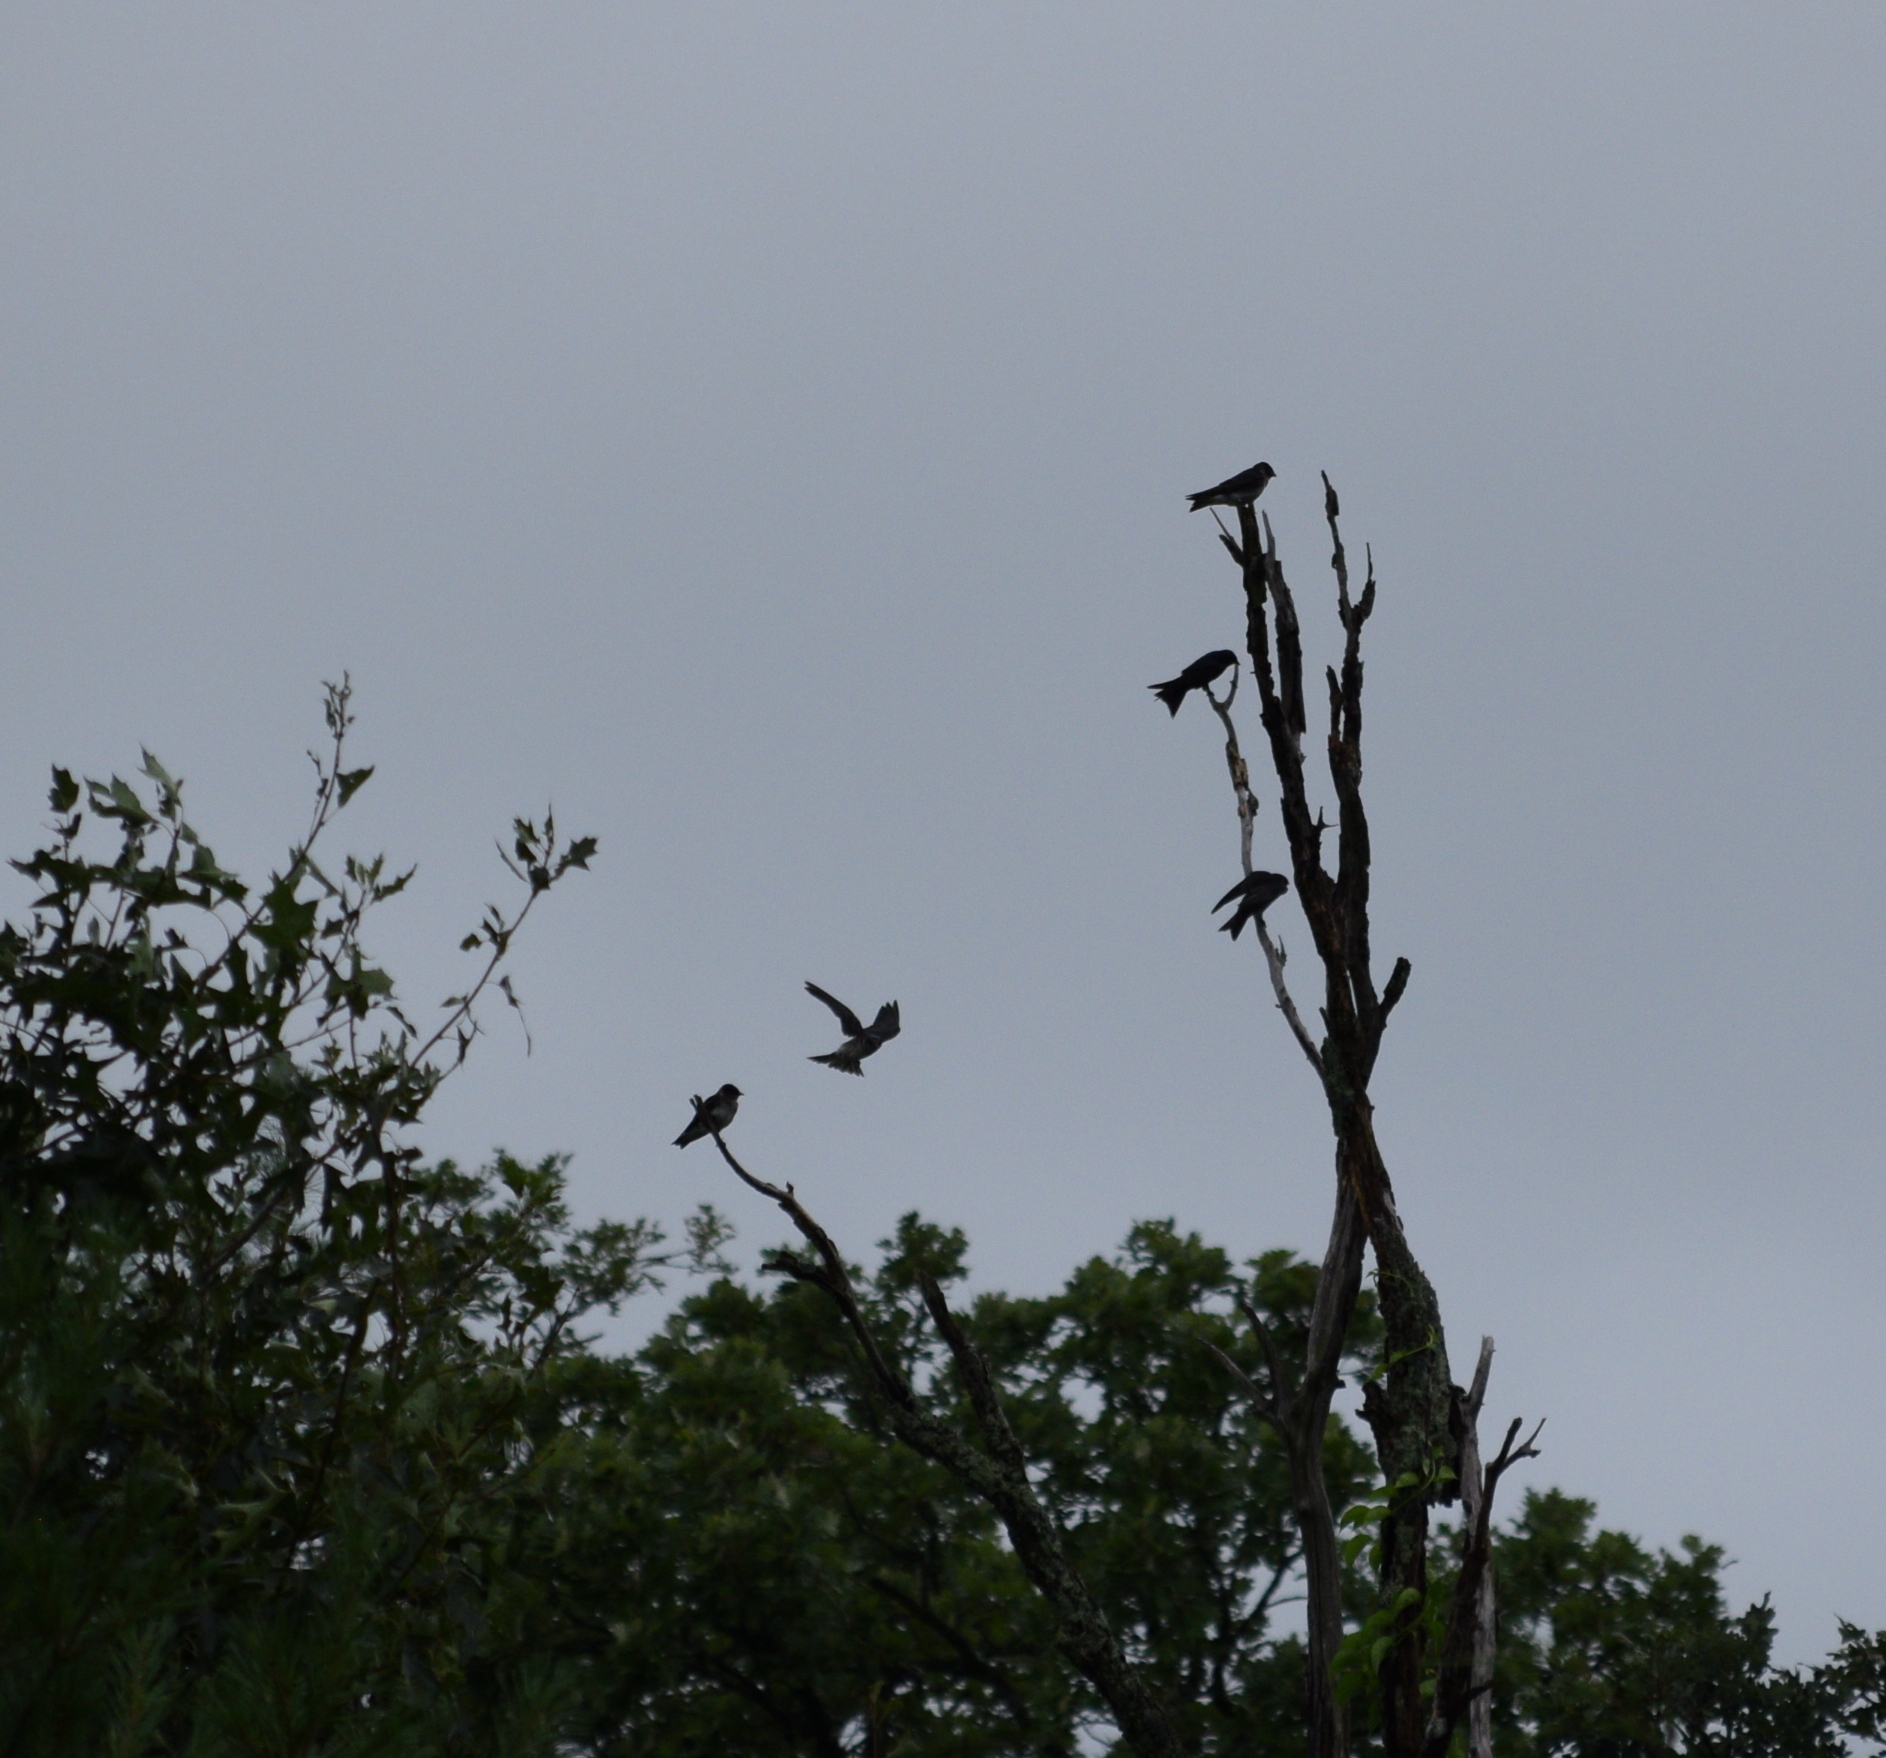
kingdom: Animalia
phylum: Chordata
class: Aves
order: Passeriformes
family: Hirundinidae
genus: Progne
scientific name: Progne subis
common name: Purple martin
